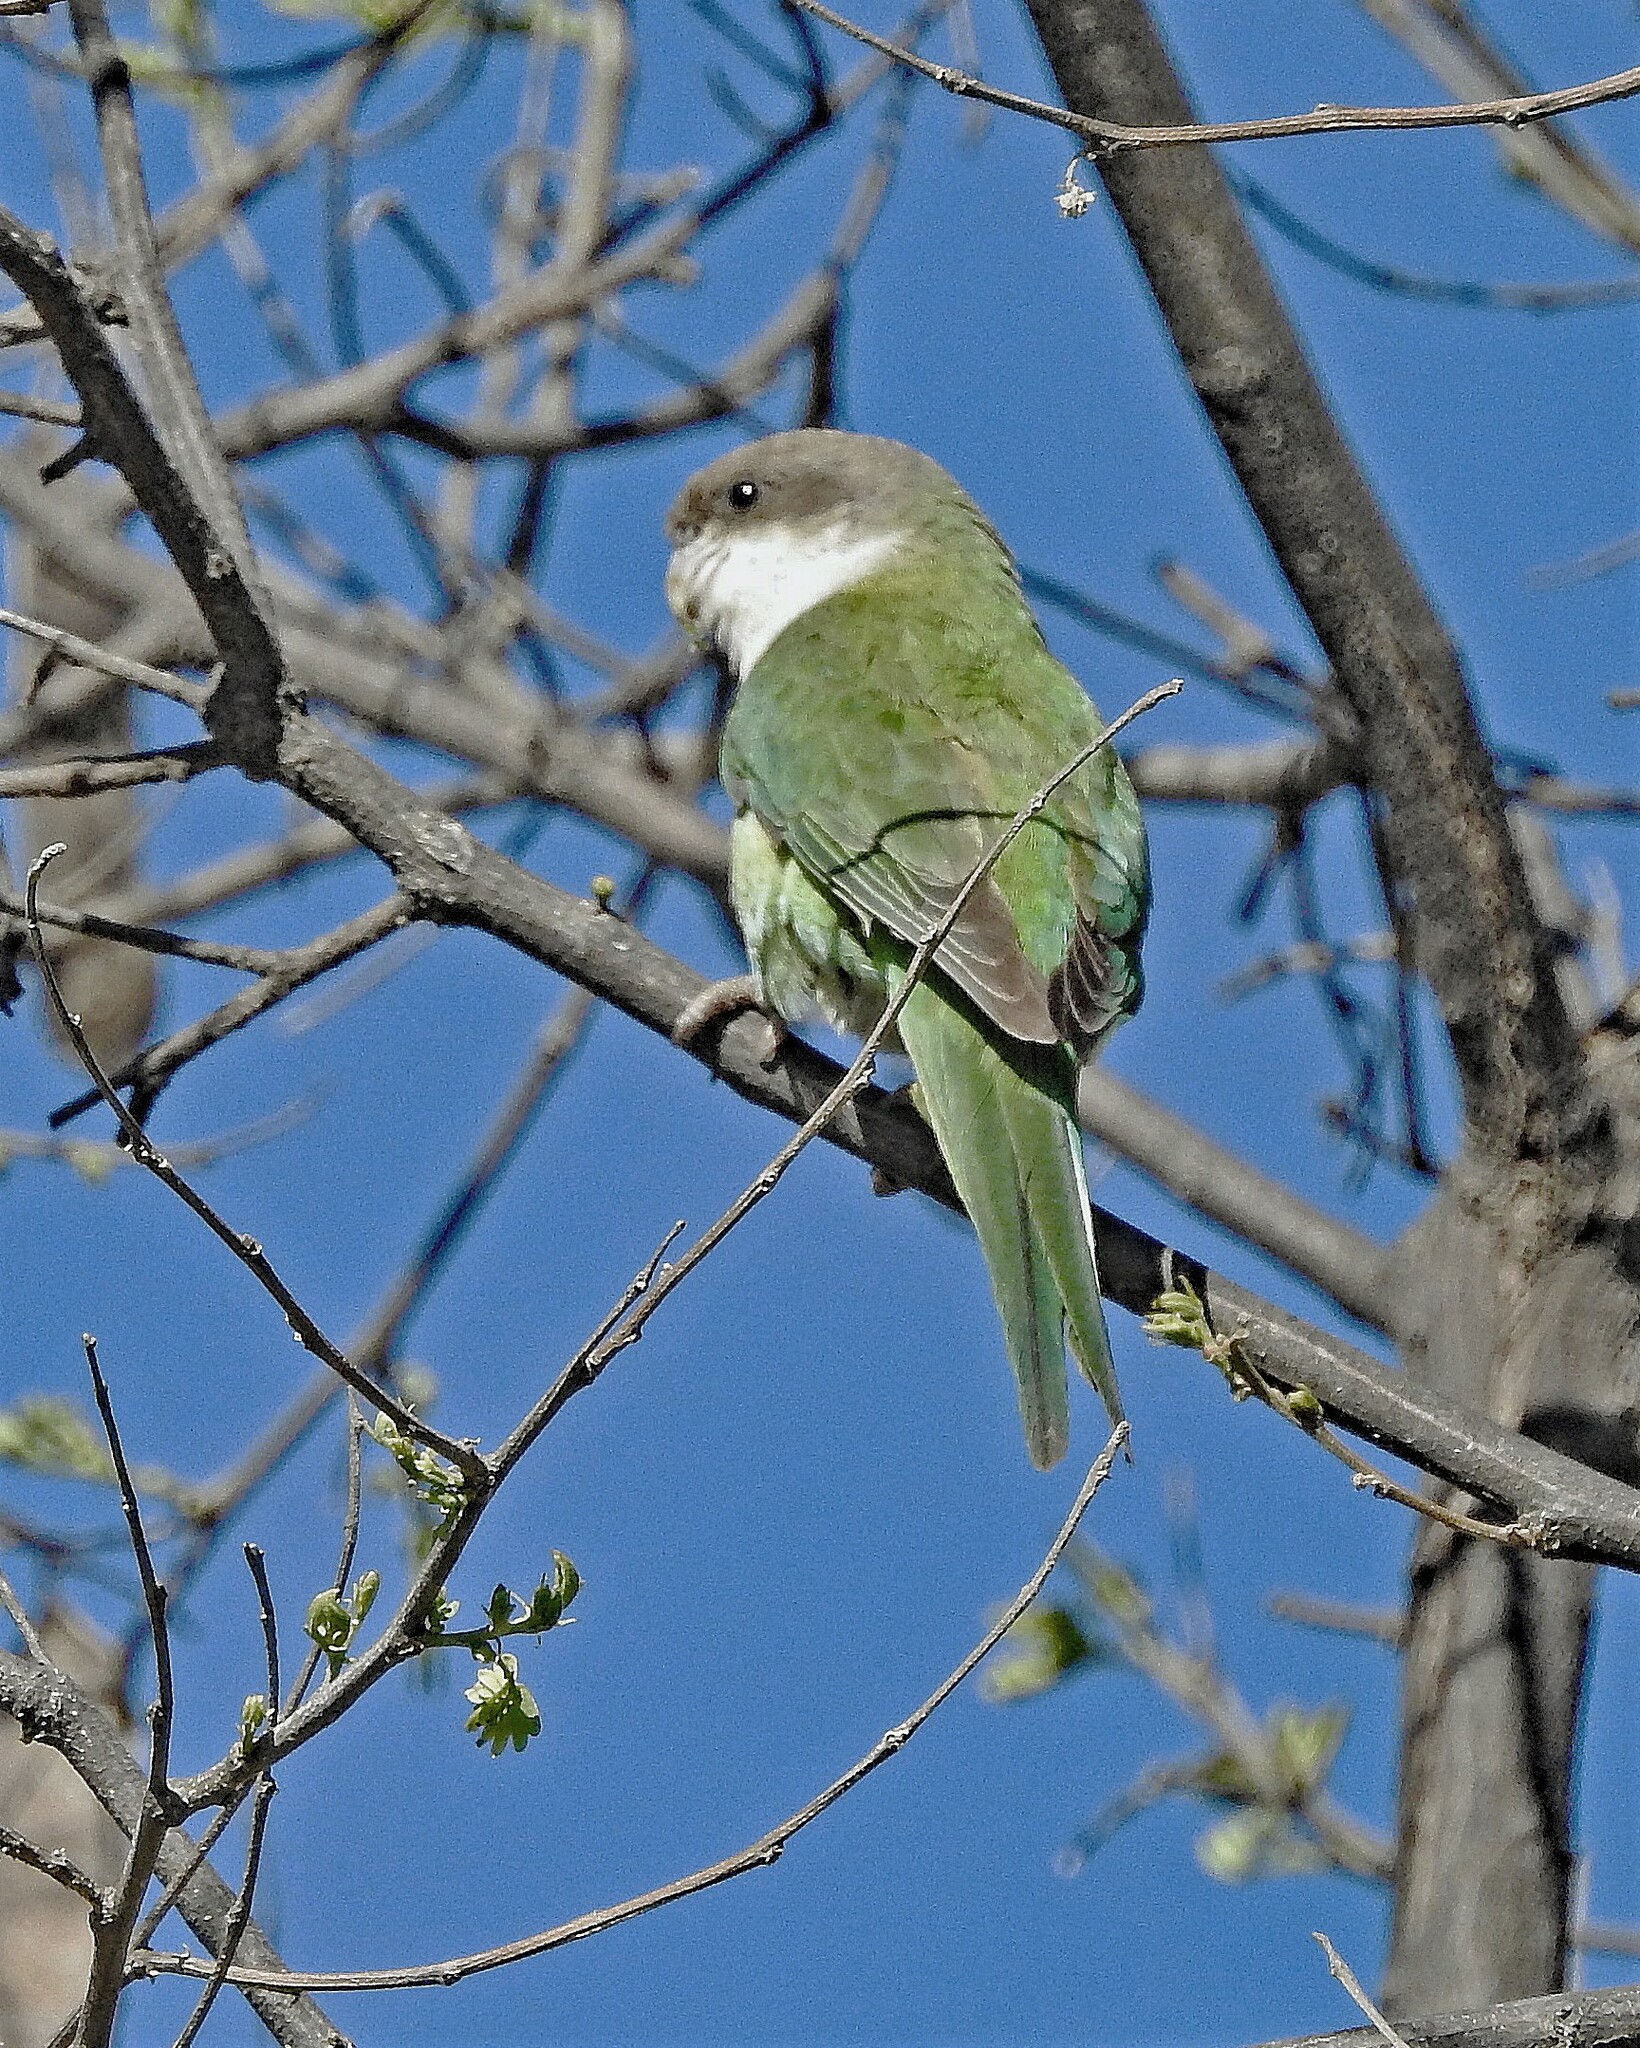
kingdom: Animalia
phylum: Chordata
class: Aves
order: Psittaciformes
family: Psittacidae
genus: Psilopsiagon
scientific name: Psilopsiagon aymara
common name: Grey-hooded parakeet
